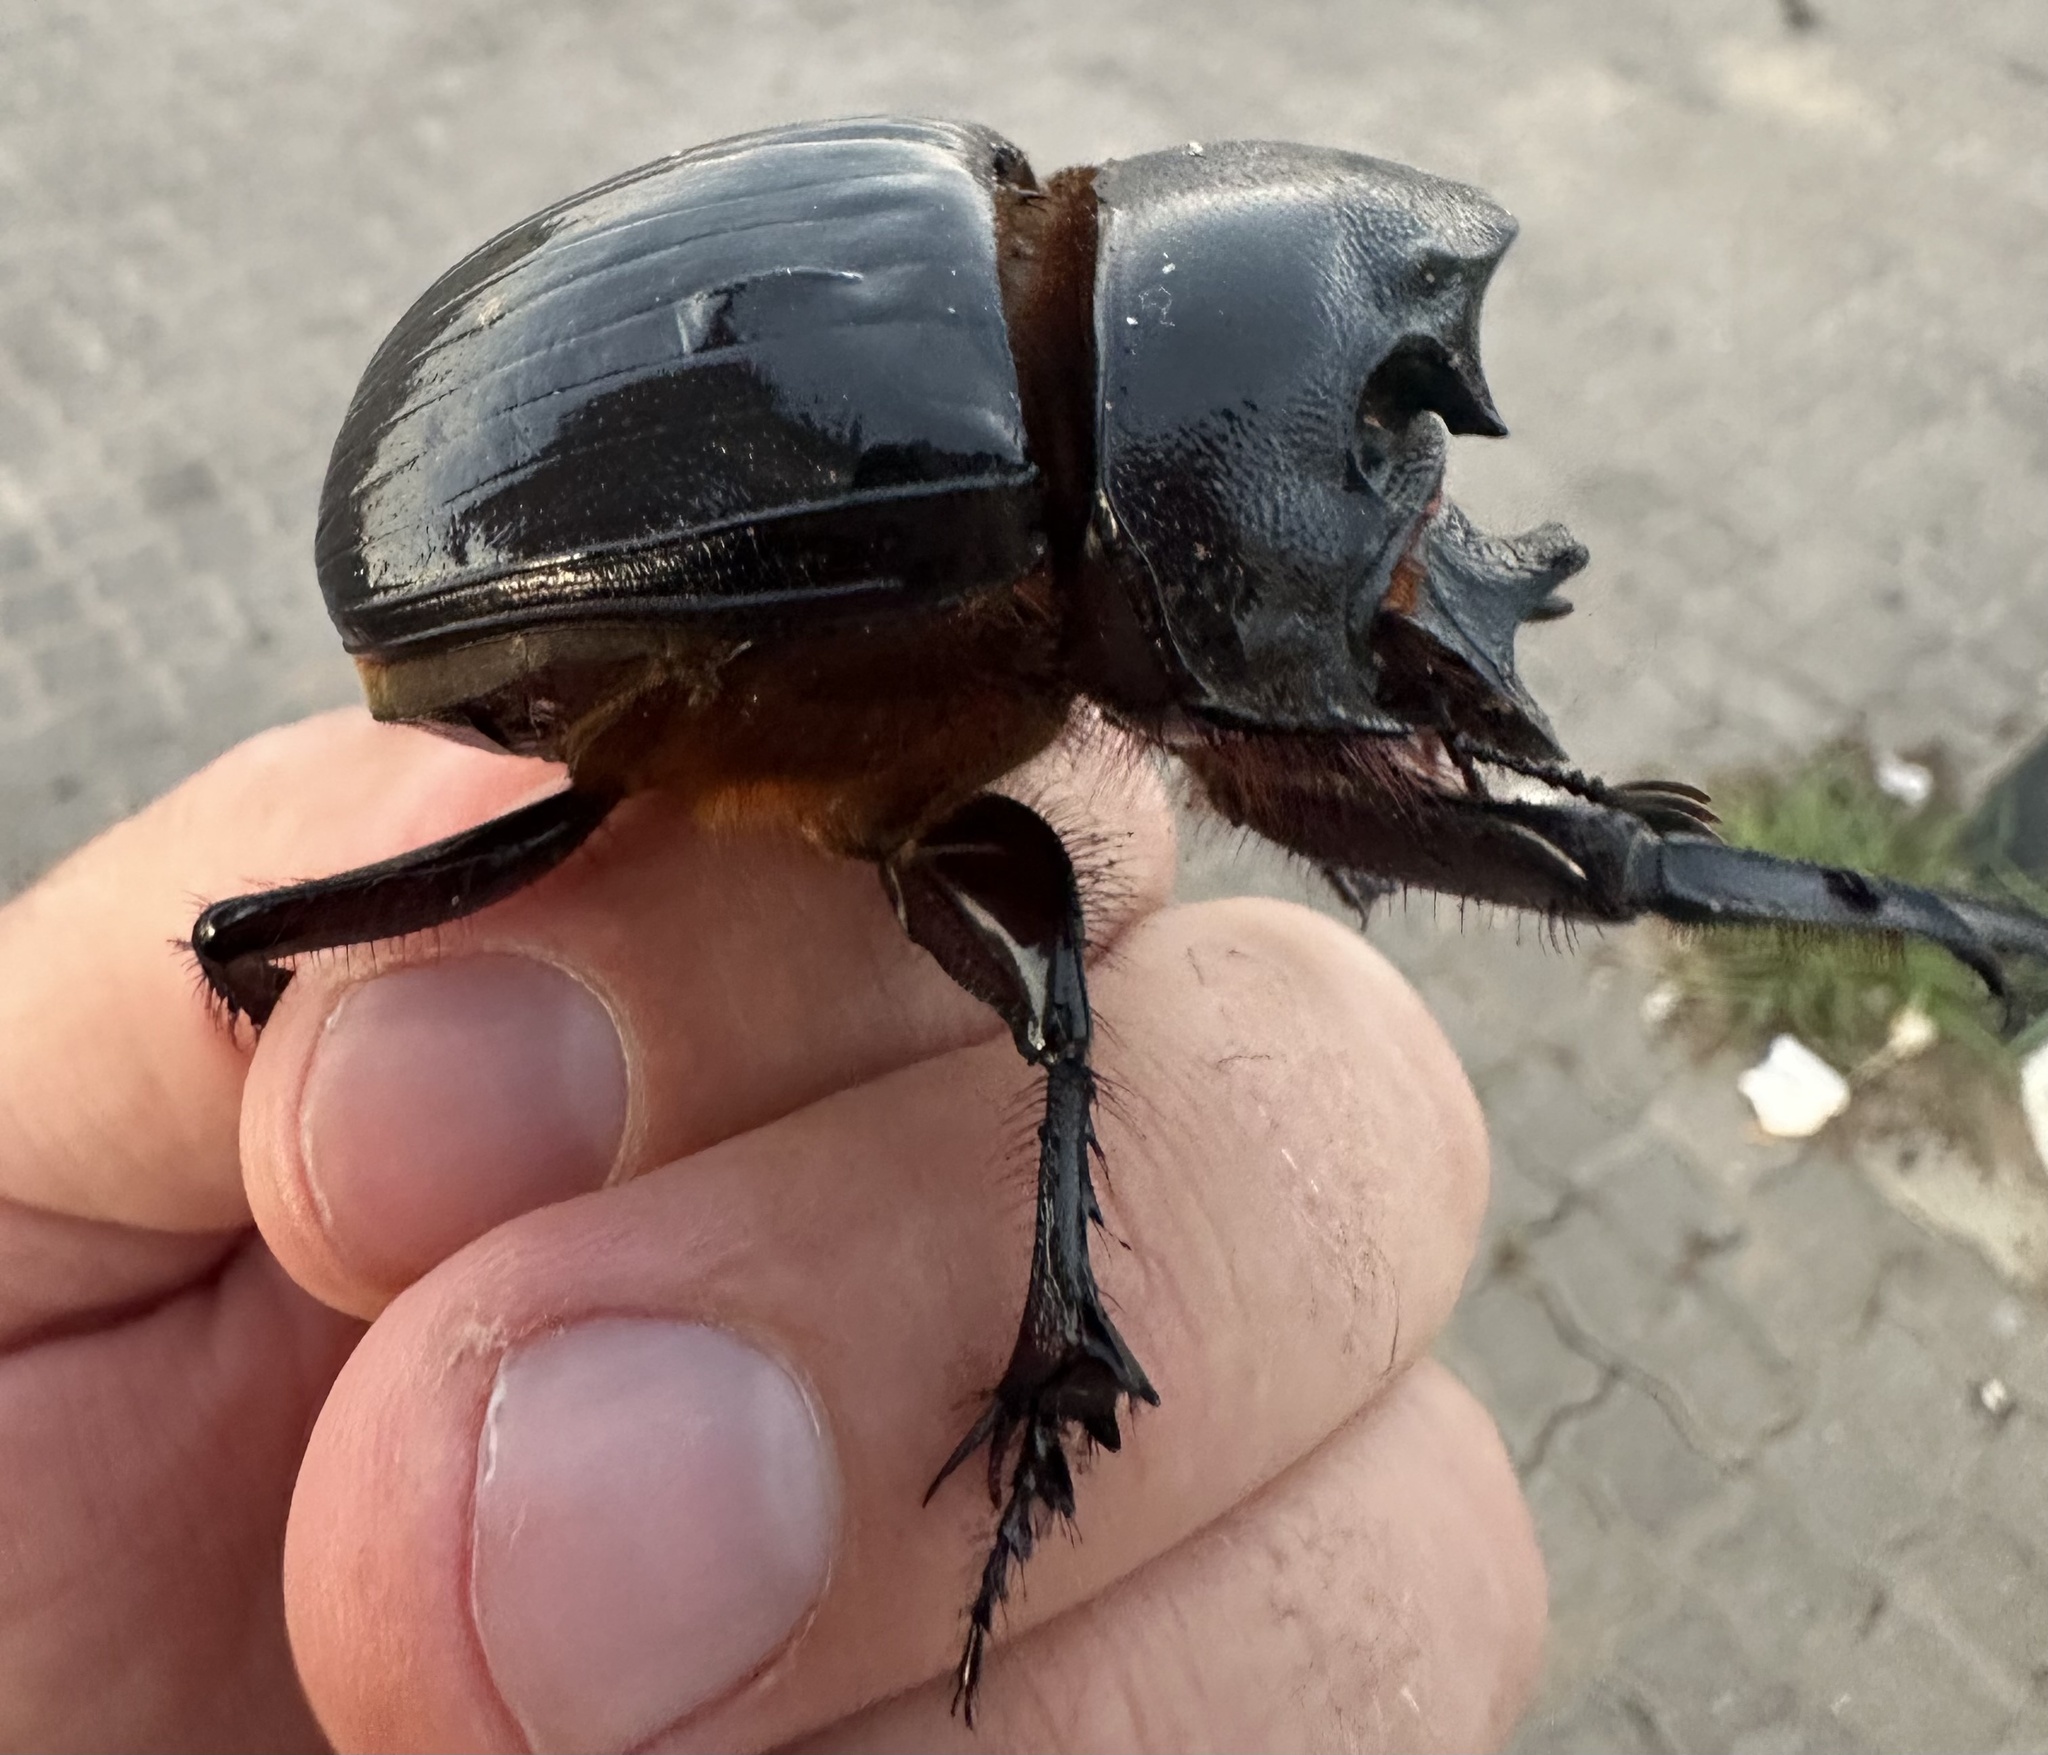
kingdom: Animalia
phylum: Arthropoda
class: Insecta
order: Coleoptera
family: Scarabaeidae
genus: Heliocopris
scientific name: Heliocopris japetus
